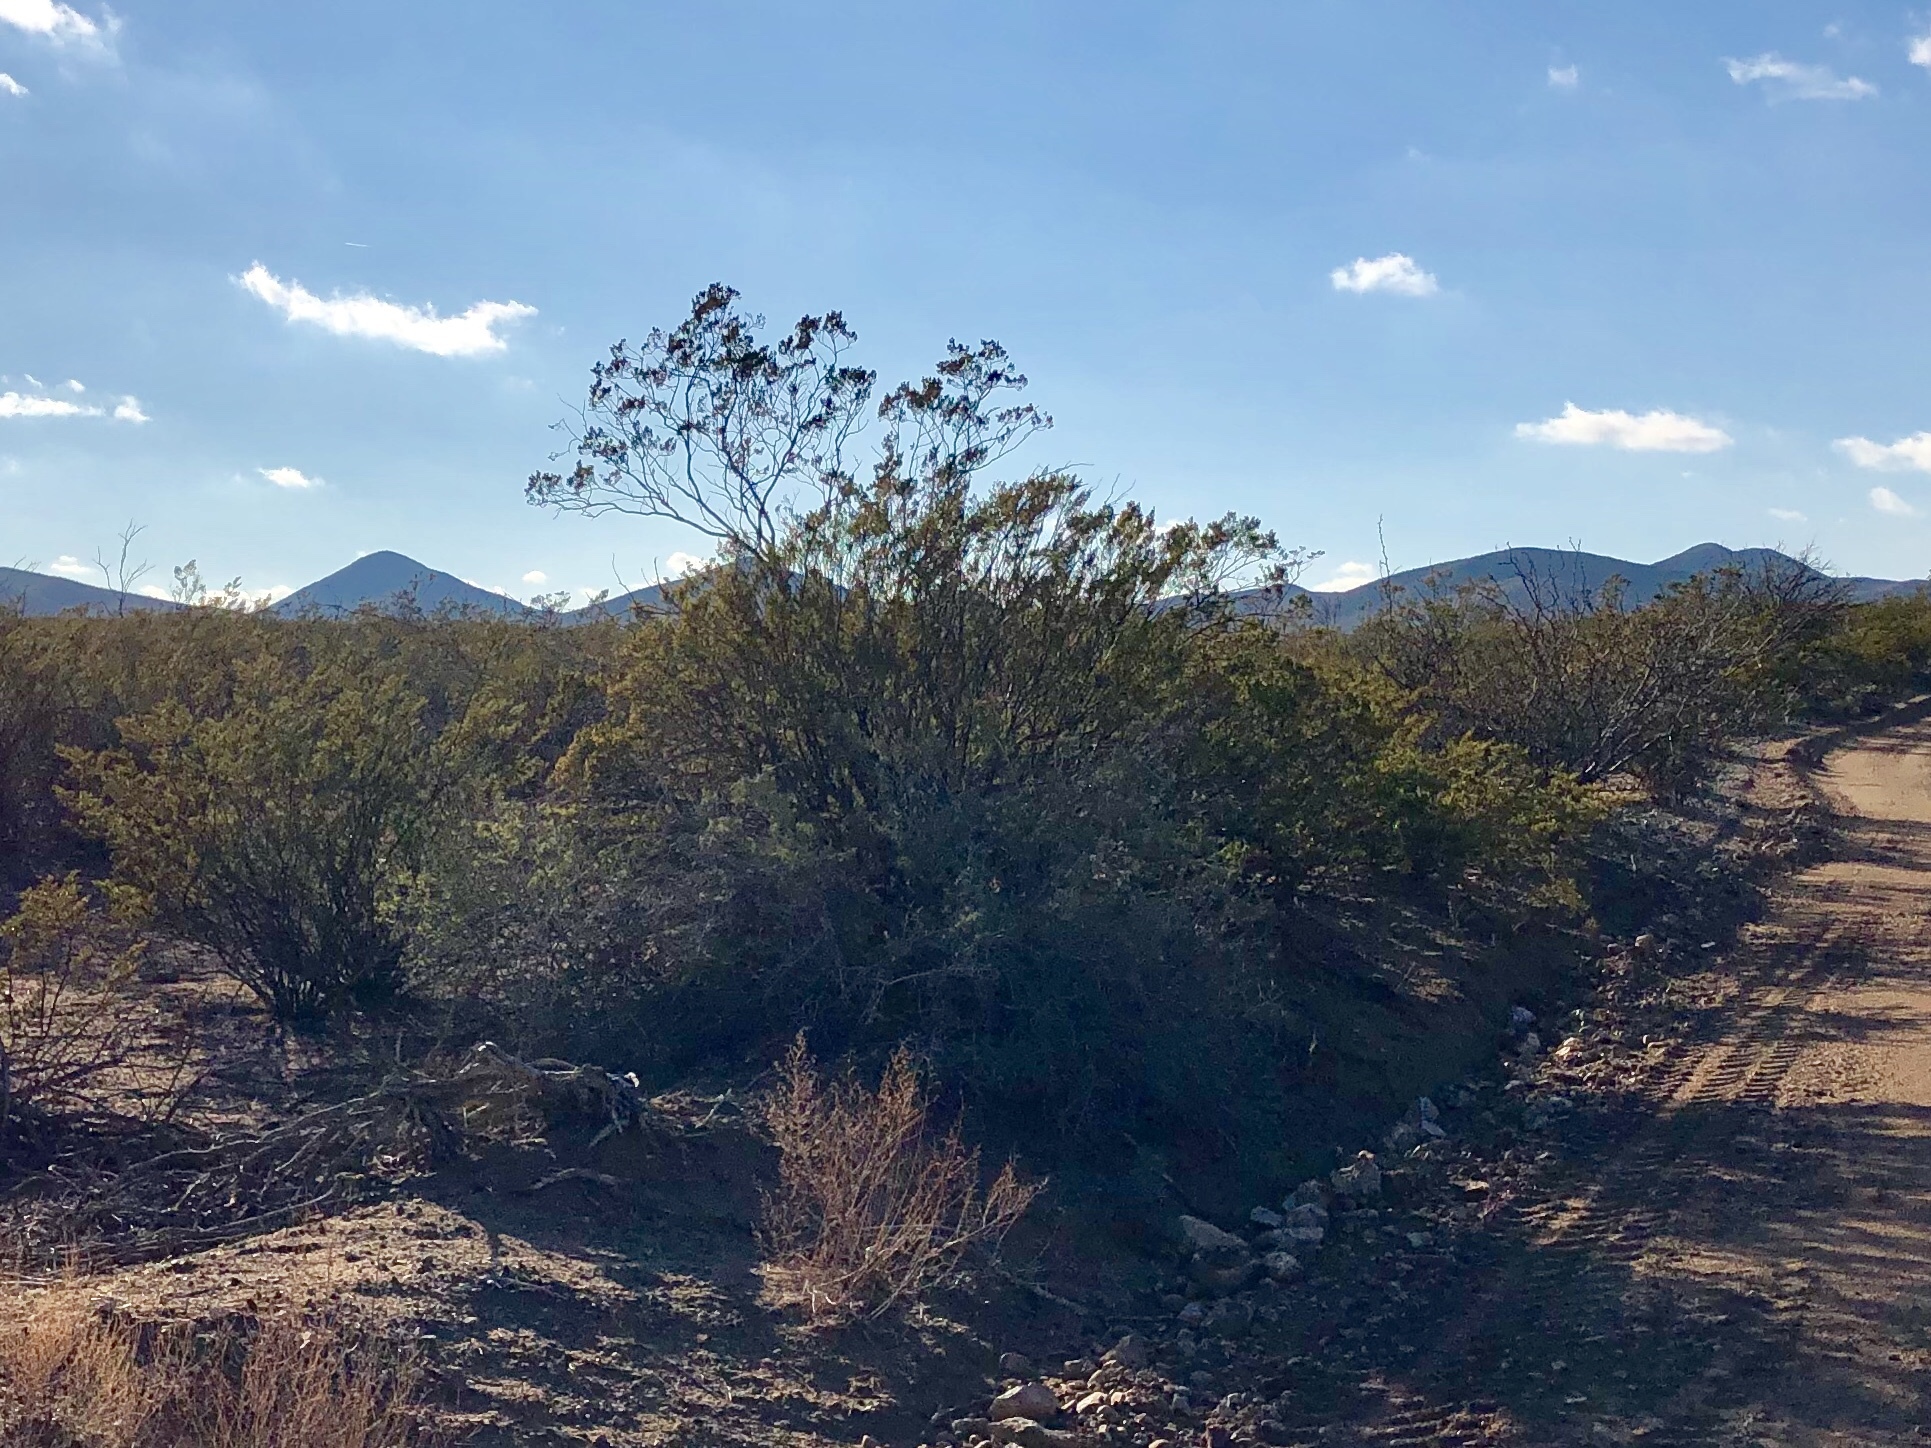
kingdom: Plantae
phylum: Tracheophyta
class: Magnoliopsida
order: Zygophyllales
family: Zygophyllaceae
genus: Larrea
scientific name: Larrea tridentata
